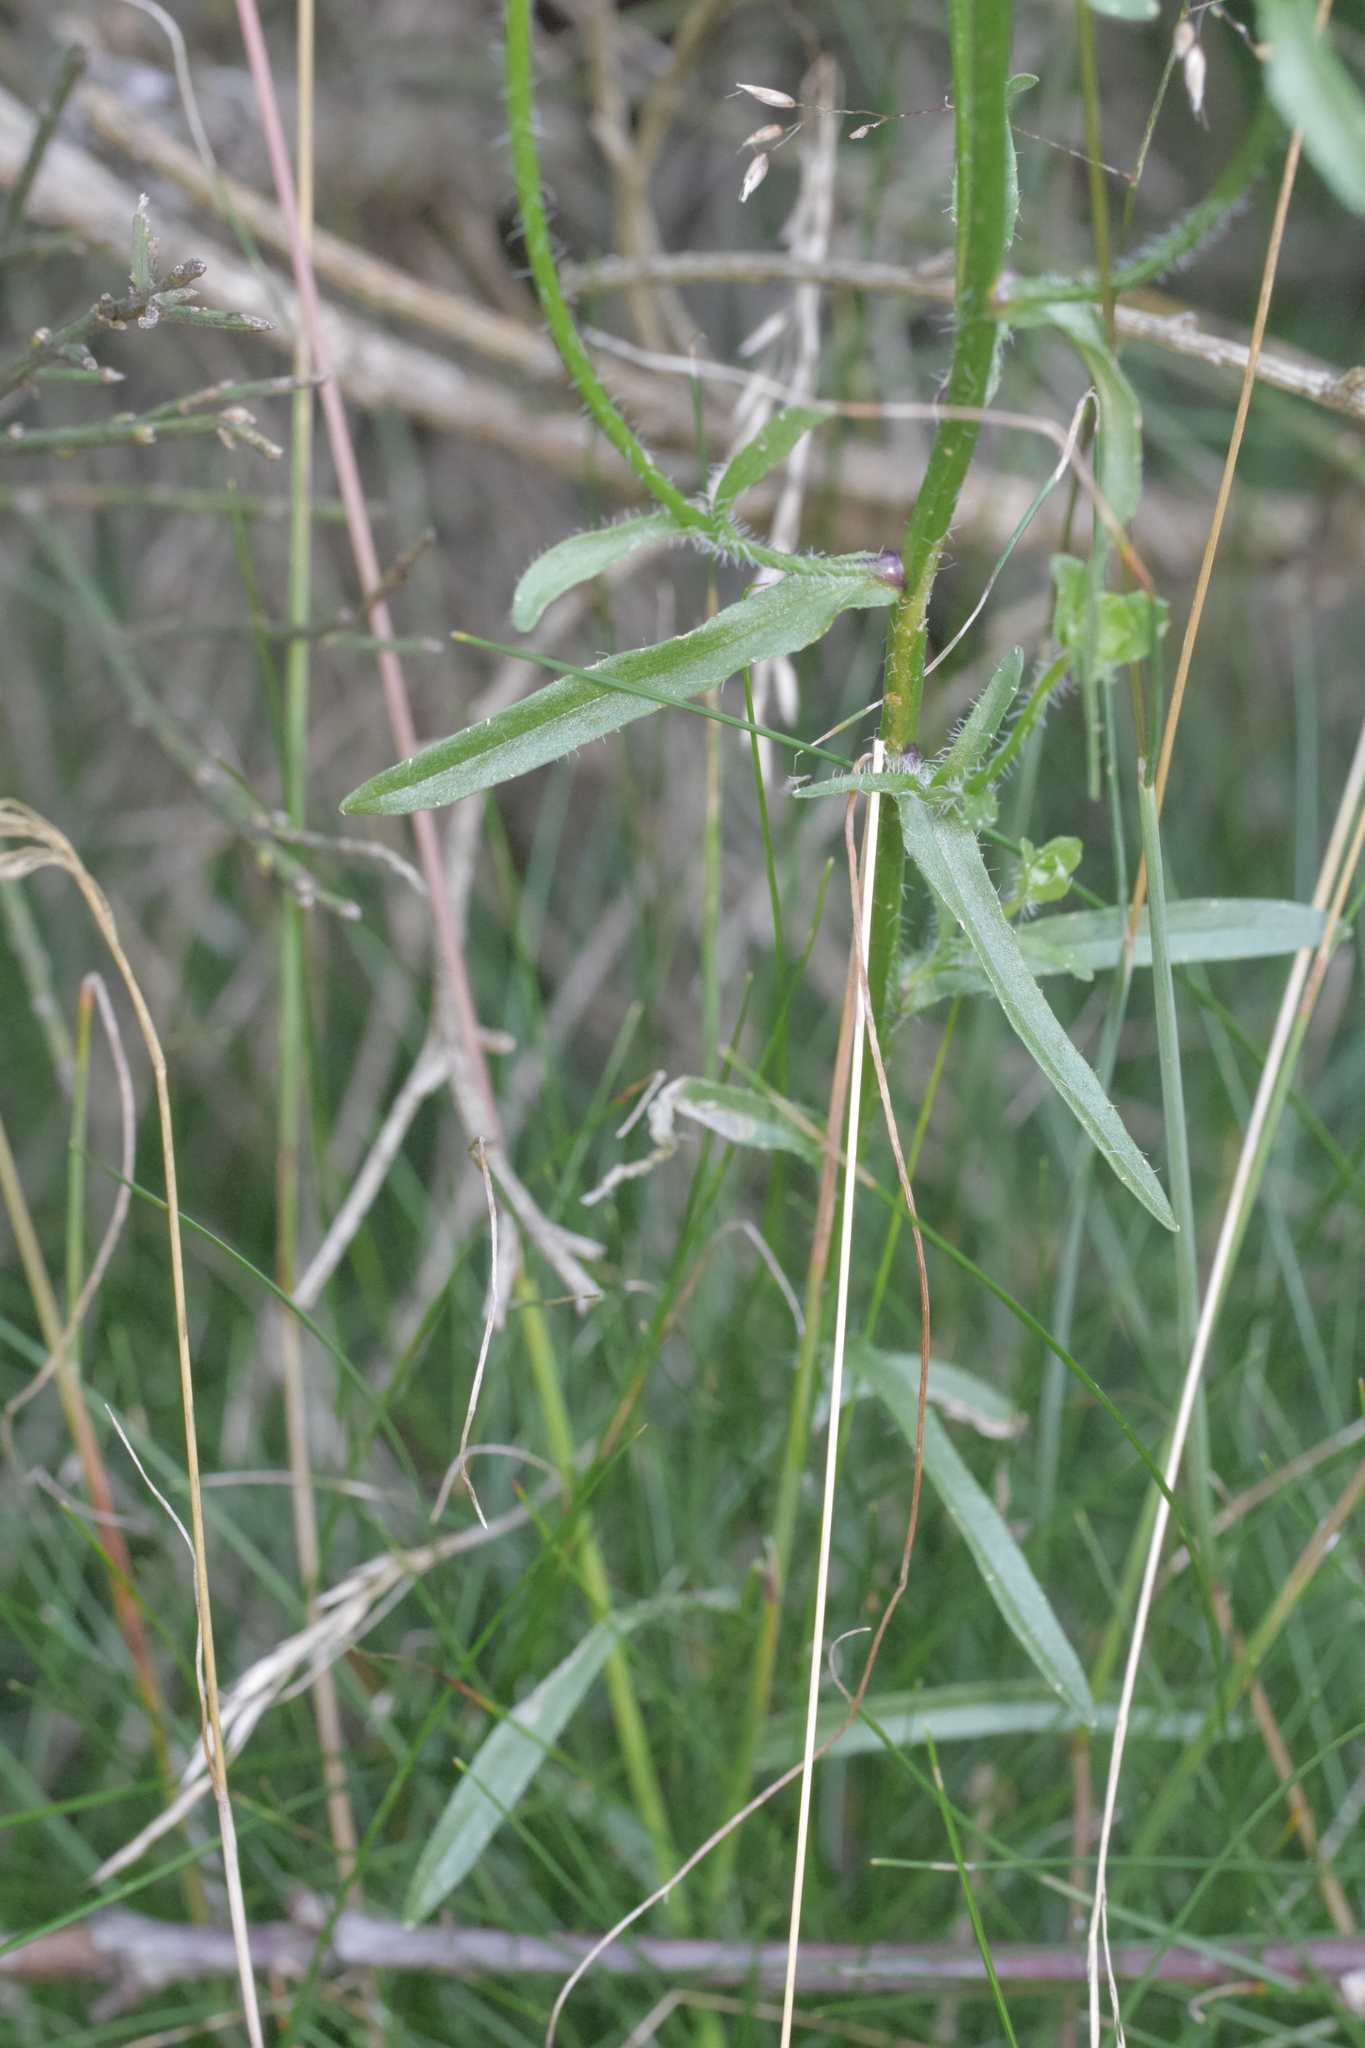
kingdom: Plantae
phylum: Tracheophyta
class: Magnoliopsida
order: Asterales
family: Campanulaceae
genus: Jasione
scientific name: Jasione laevis
